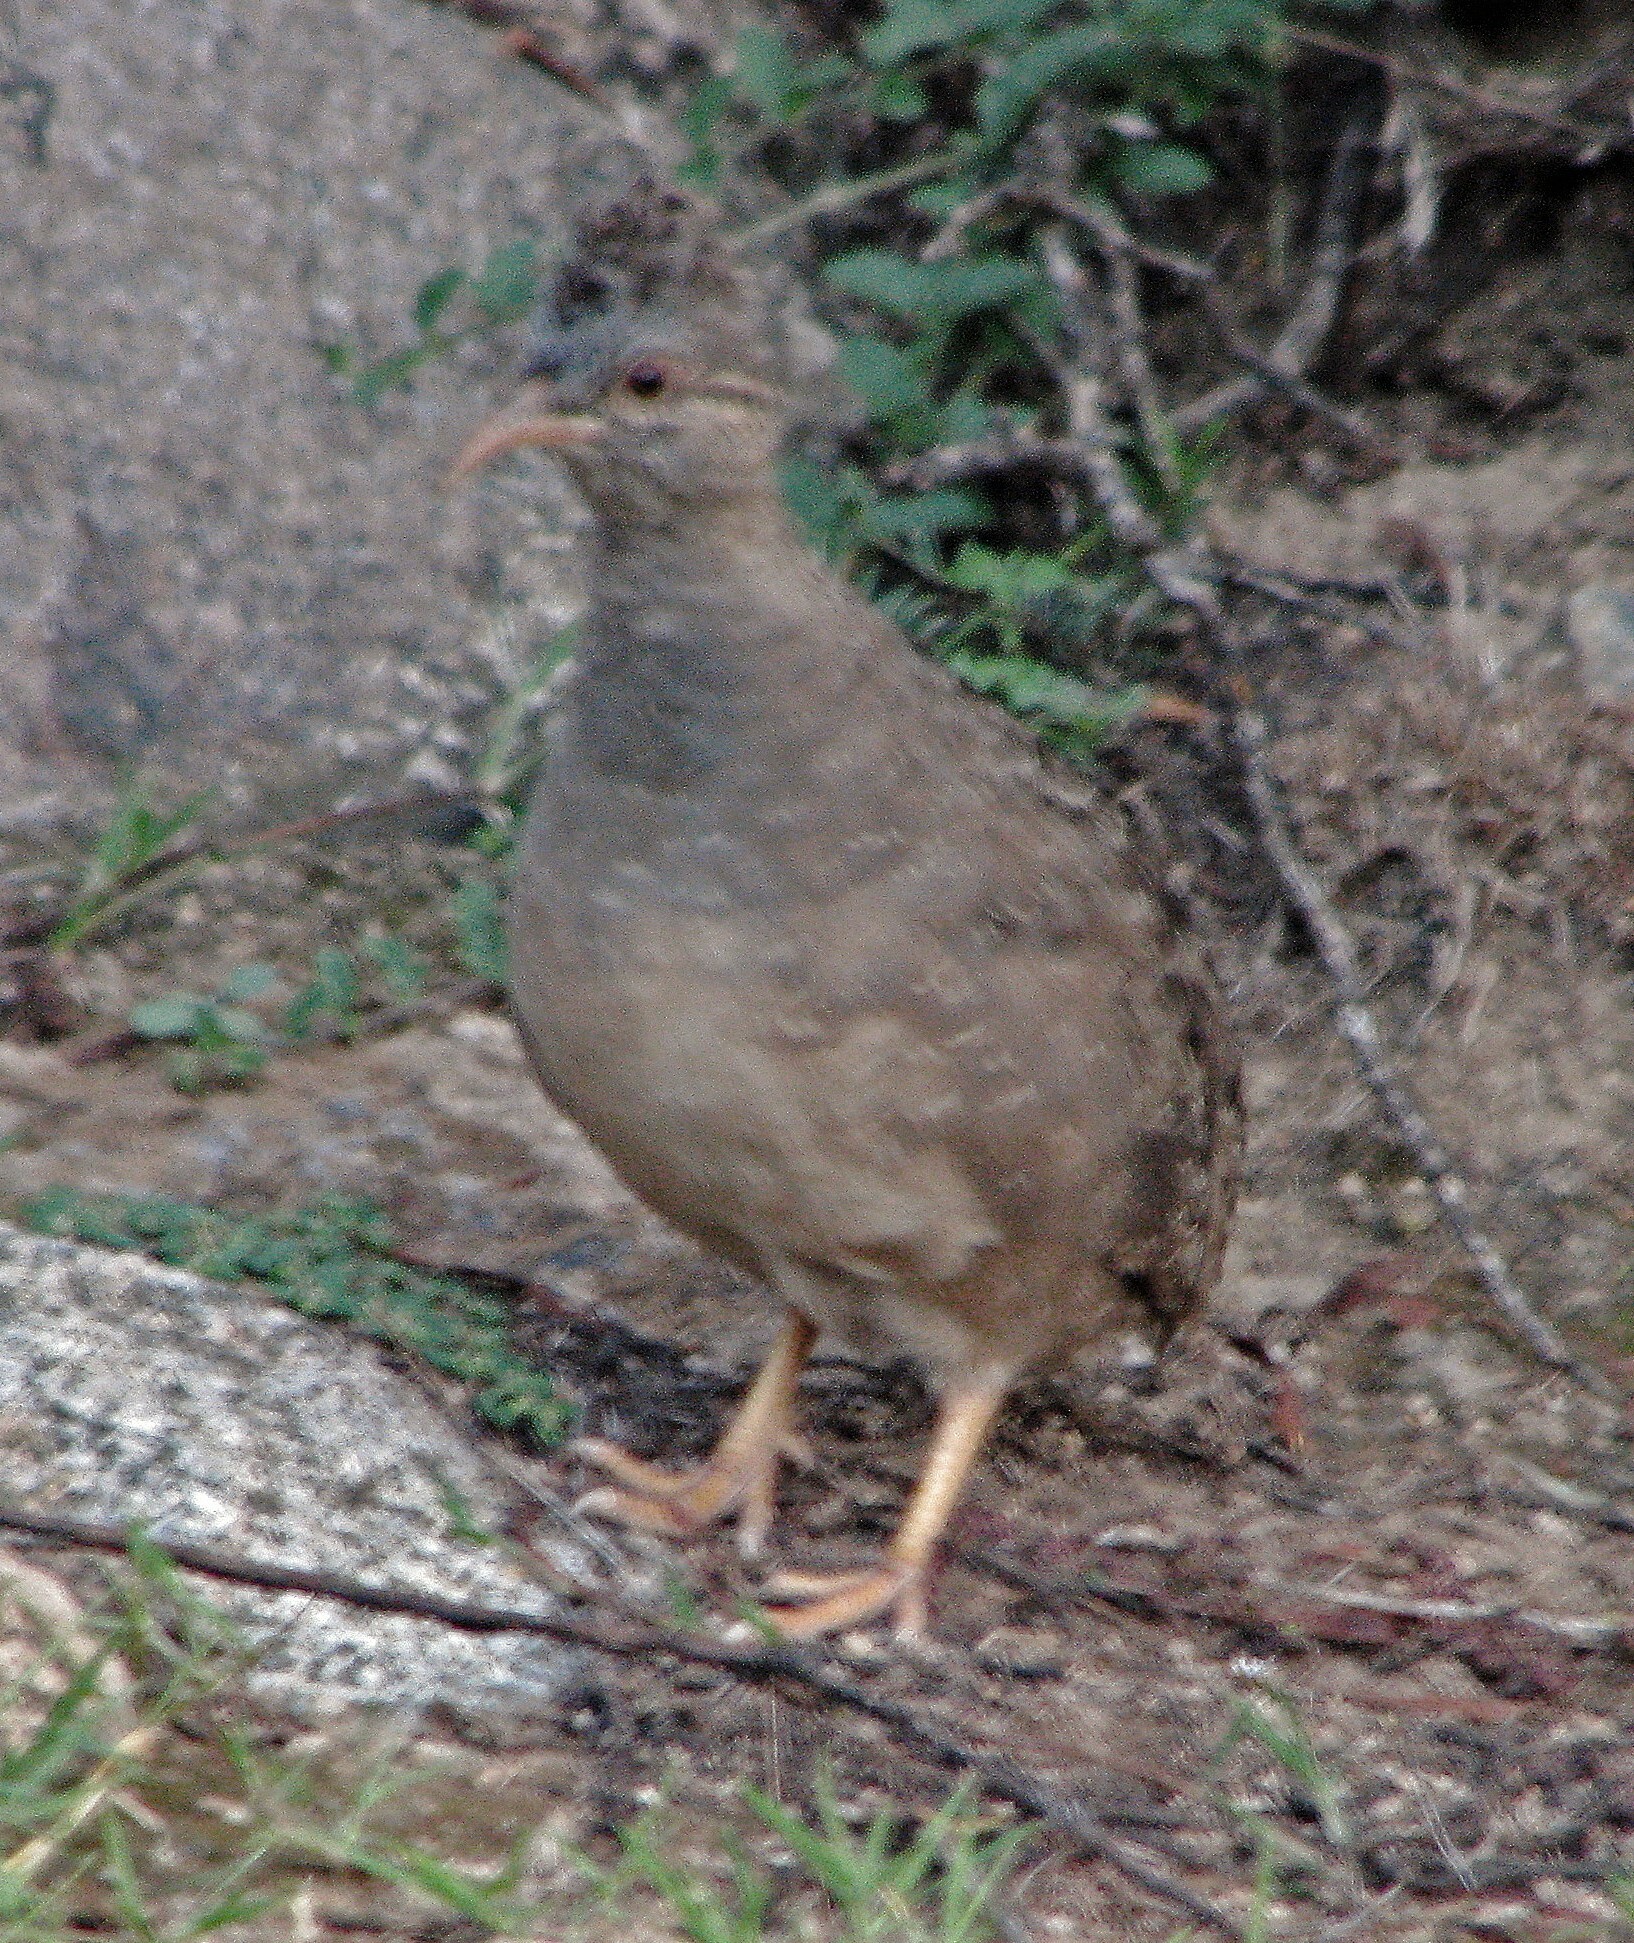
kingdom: Animalia
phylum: Chordata
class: Aves
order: Tinamiformes
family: Tinamidae
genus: Nothoprocta
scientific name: Nothoprocta pentlandii
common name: Andean tinamou
